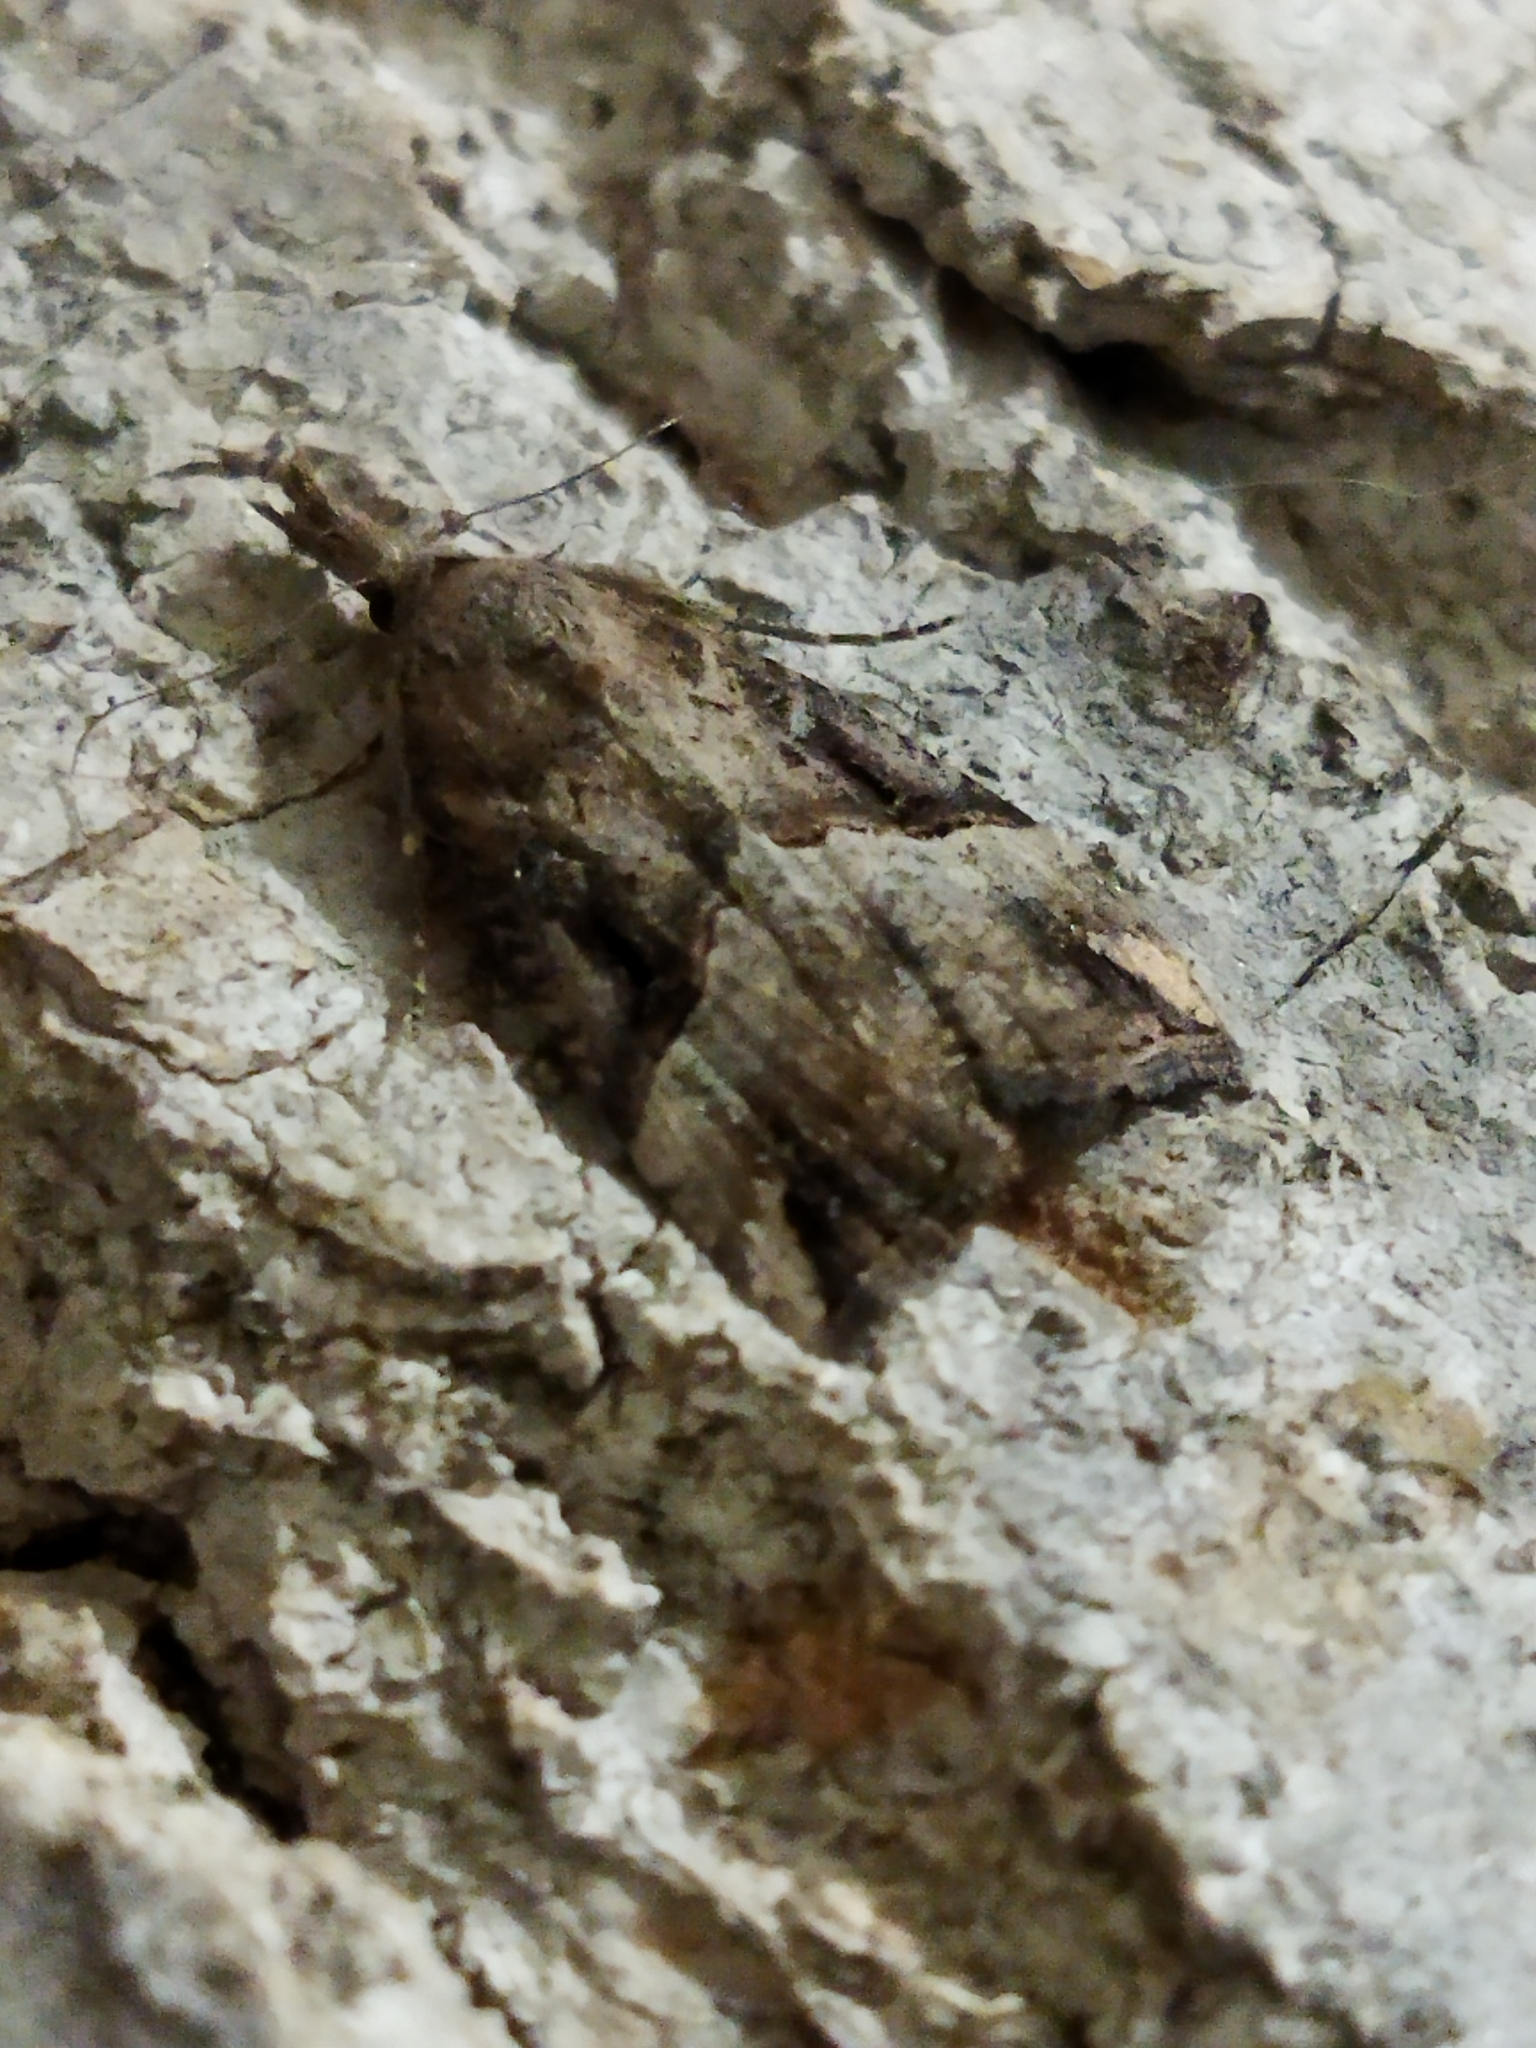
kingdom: Animalia
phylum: Arthropoda
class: Insecta
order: Lepidoptera
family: Erebidae
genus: Hypena
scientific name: Hypena rostralis
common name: Buttoned snout
